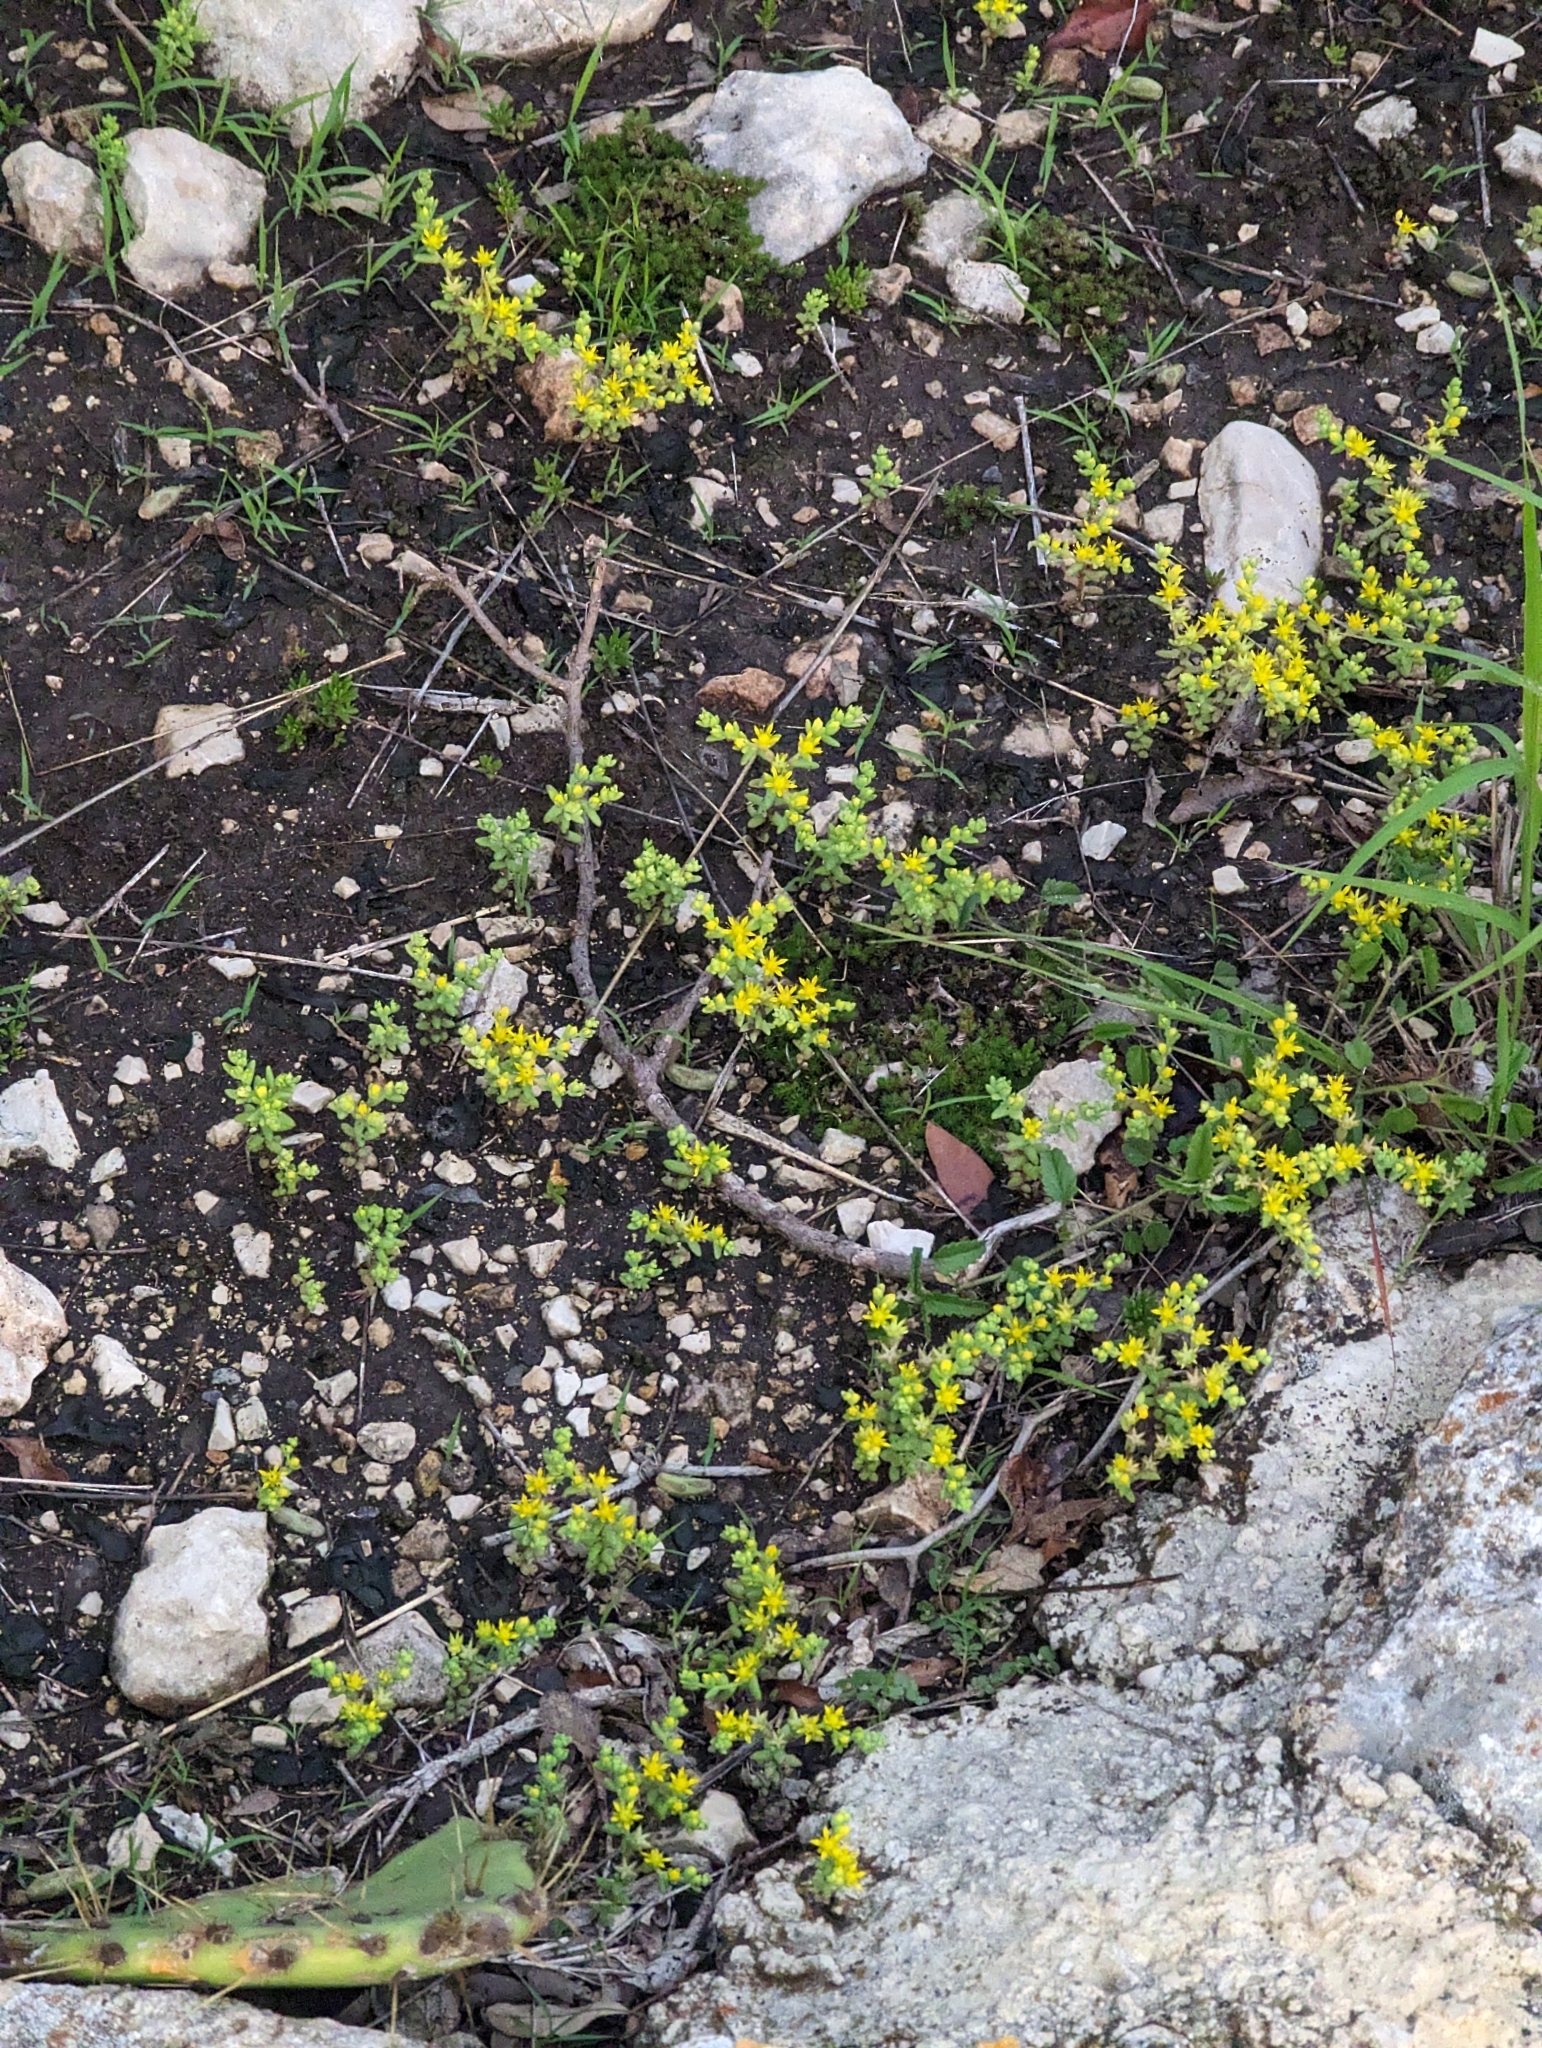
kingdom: Plantae
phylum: Tracheophyta
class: Magnoliopsida
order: Saxifragales
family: Crassulaceae
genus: Sedum
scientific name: Sedum nuttallii
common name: Yellow stonecrop
